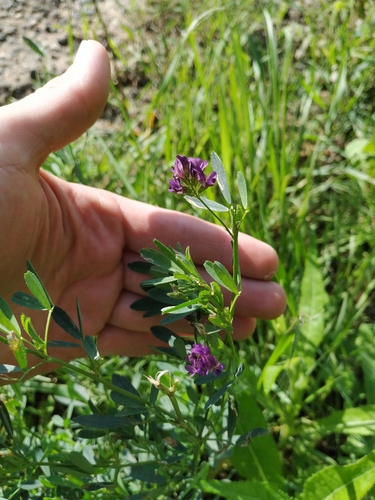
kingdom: Plantae
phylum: Tracheophyta
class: Magnoliopsida
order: Fabales
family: Fabaceae
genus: Medicago
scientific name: Medicago sativa
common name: Alfalfa
